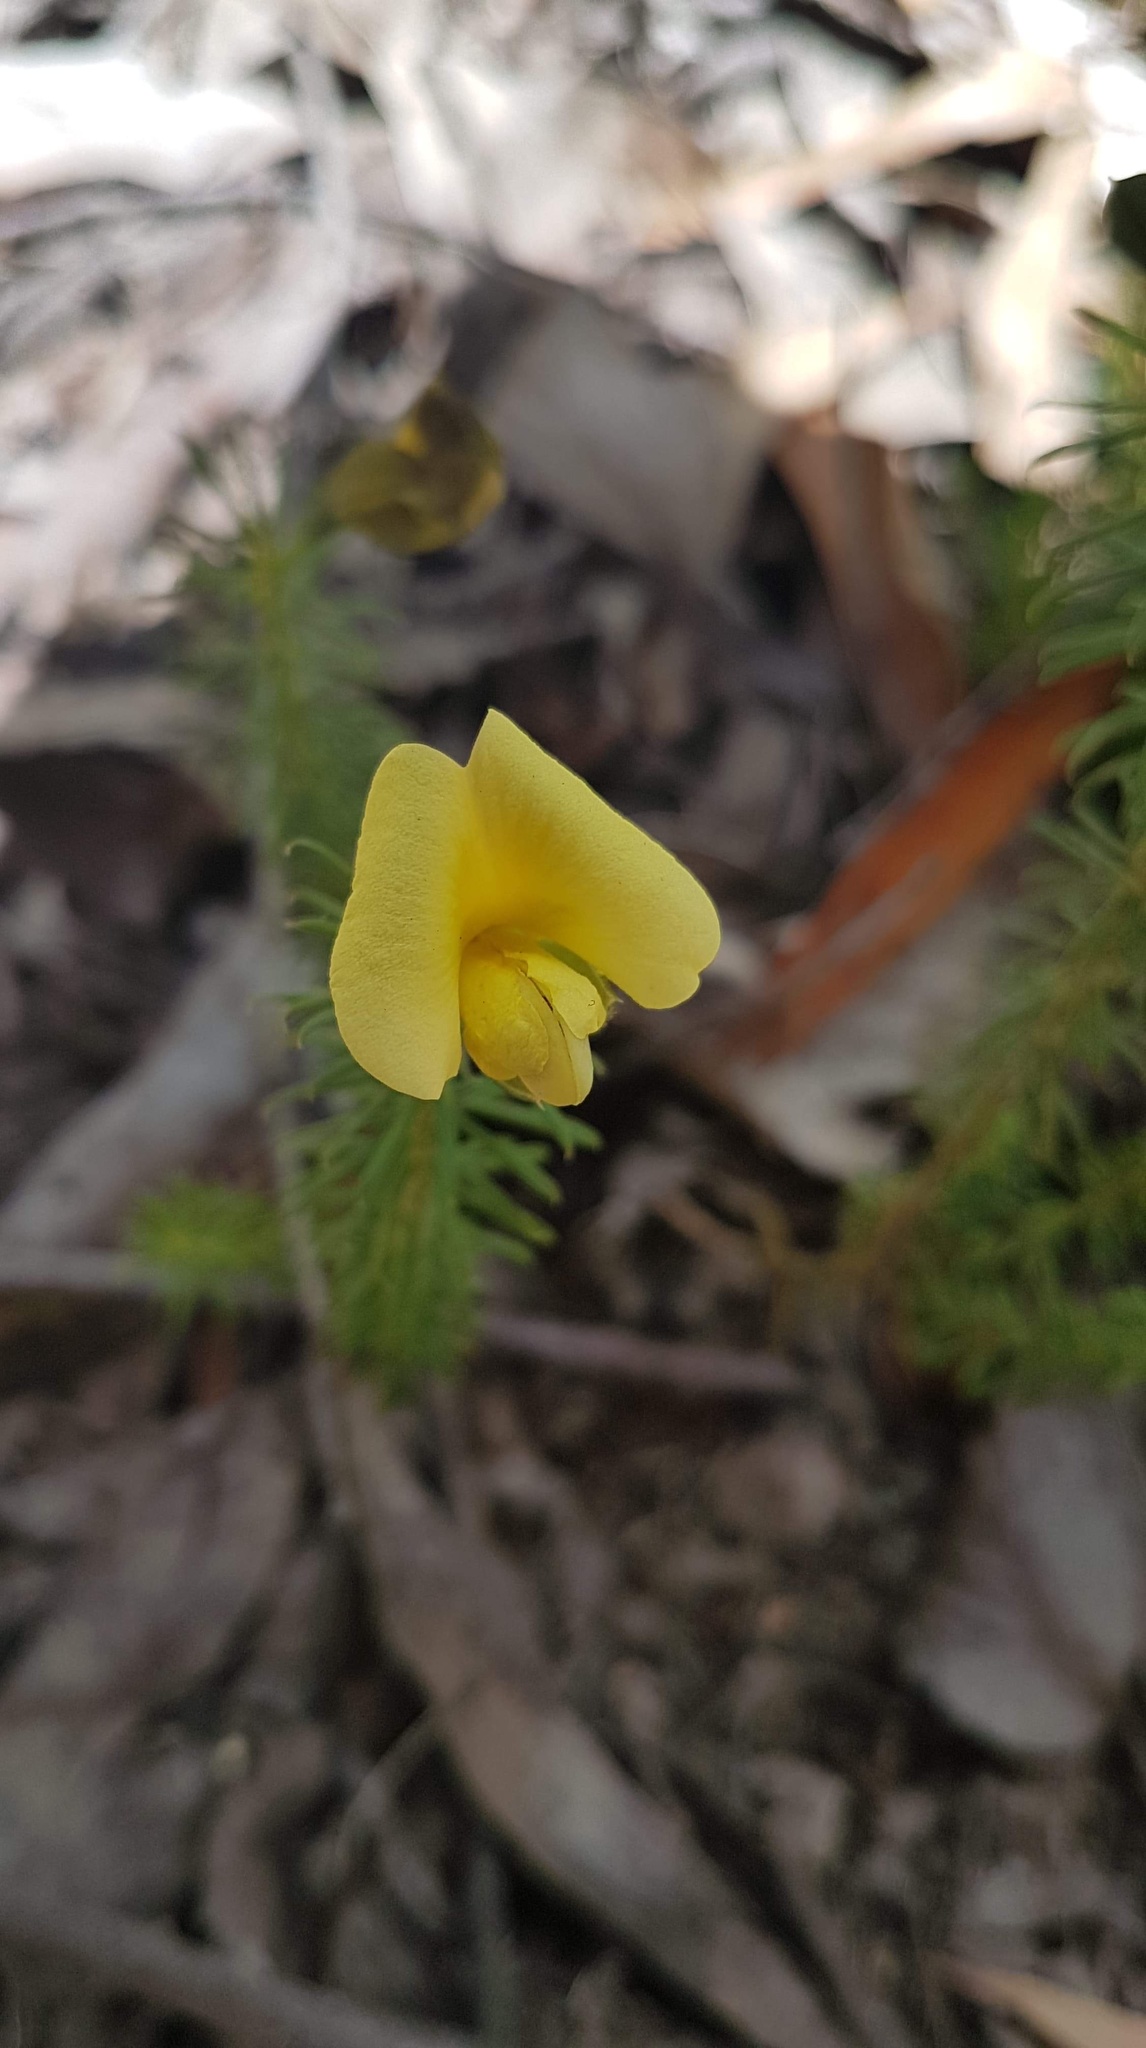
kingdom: Plantae
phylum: Tracheophyta
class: Magnoliopsida
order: Fabales
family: Fabaceae
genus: Gompholobium
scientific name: Gompholobium ecostatum
